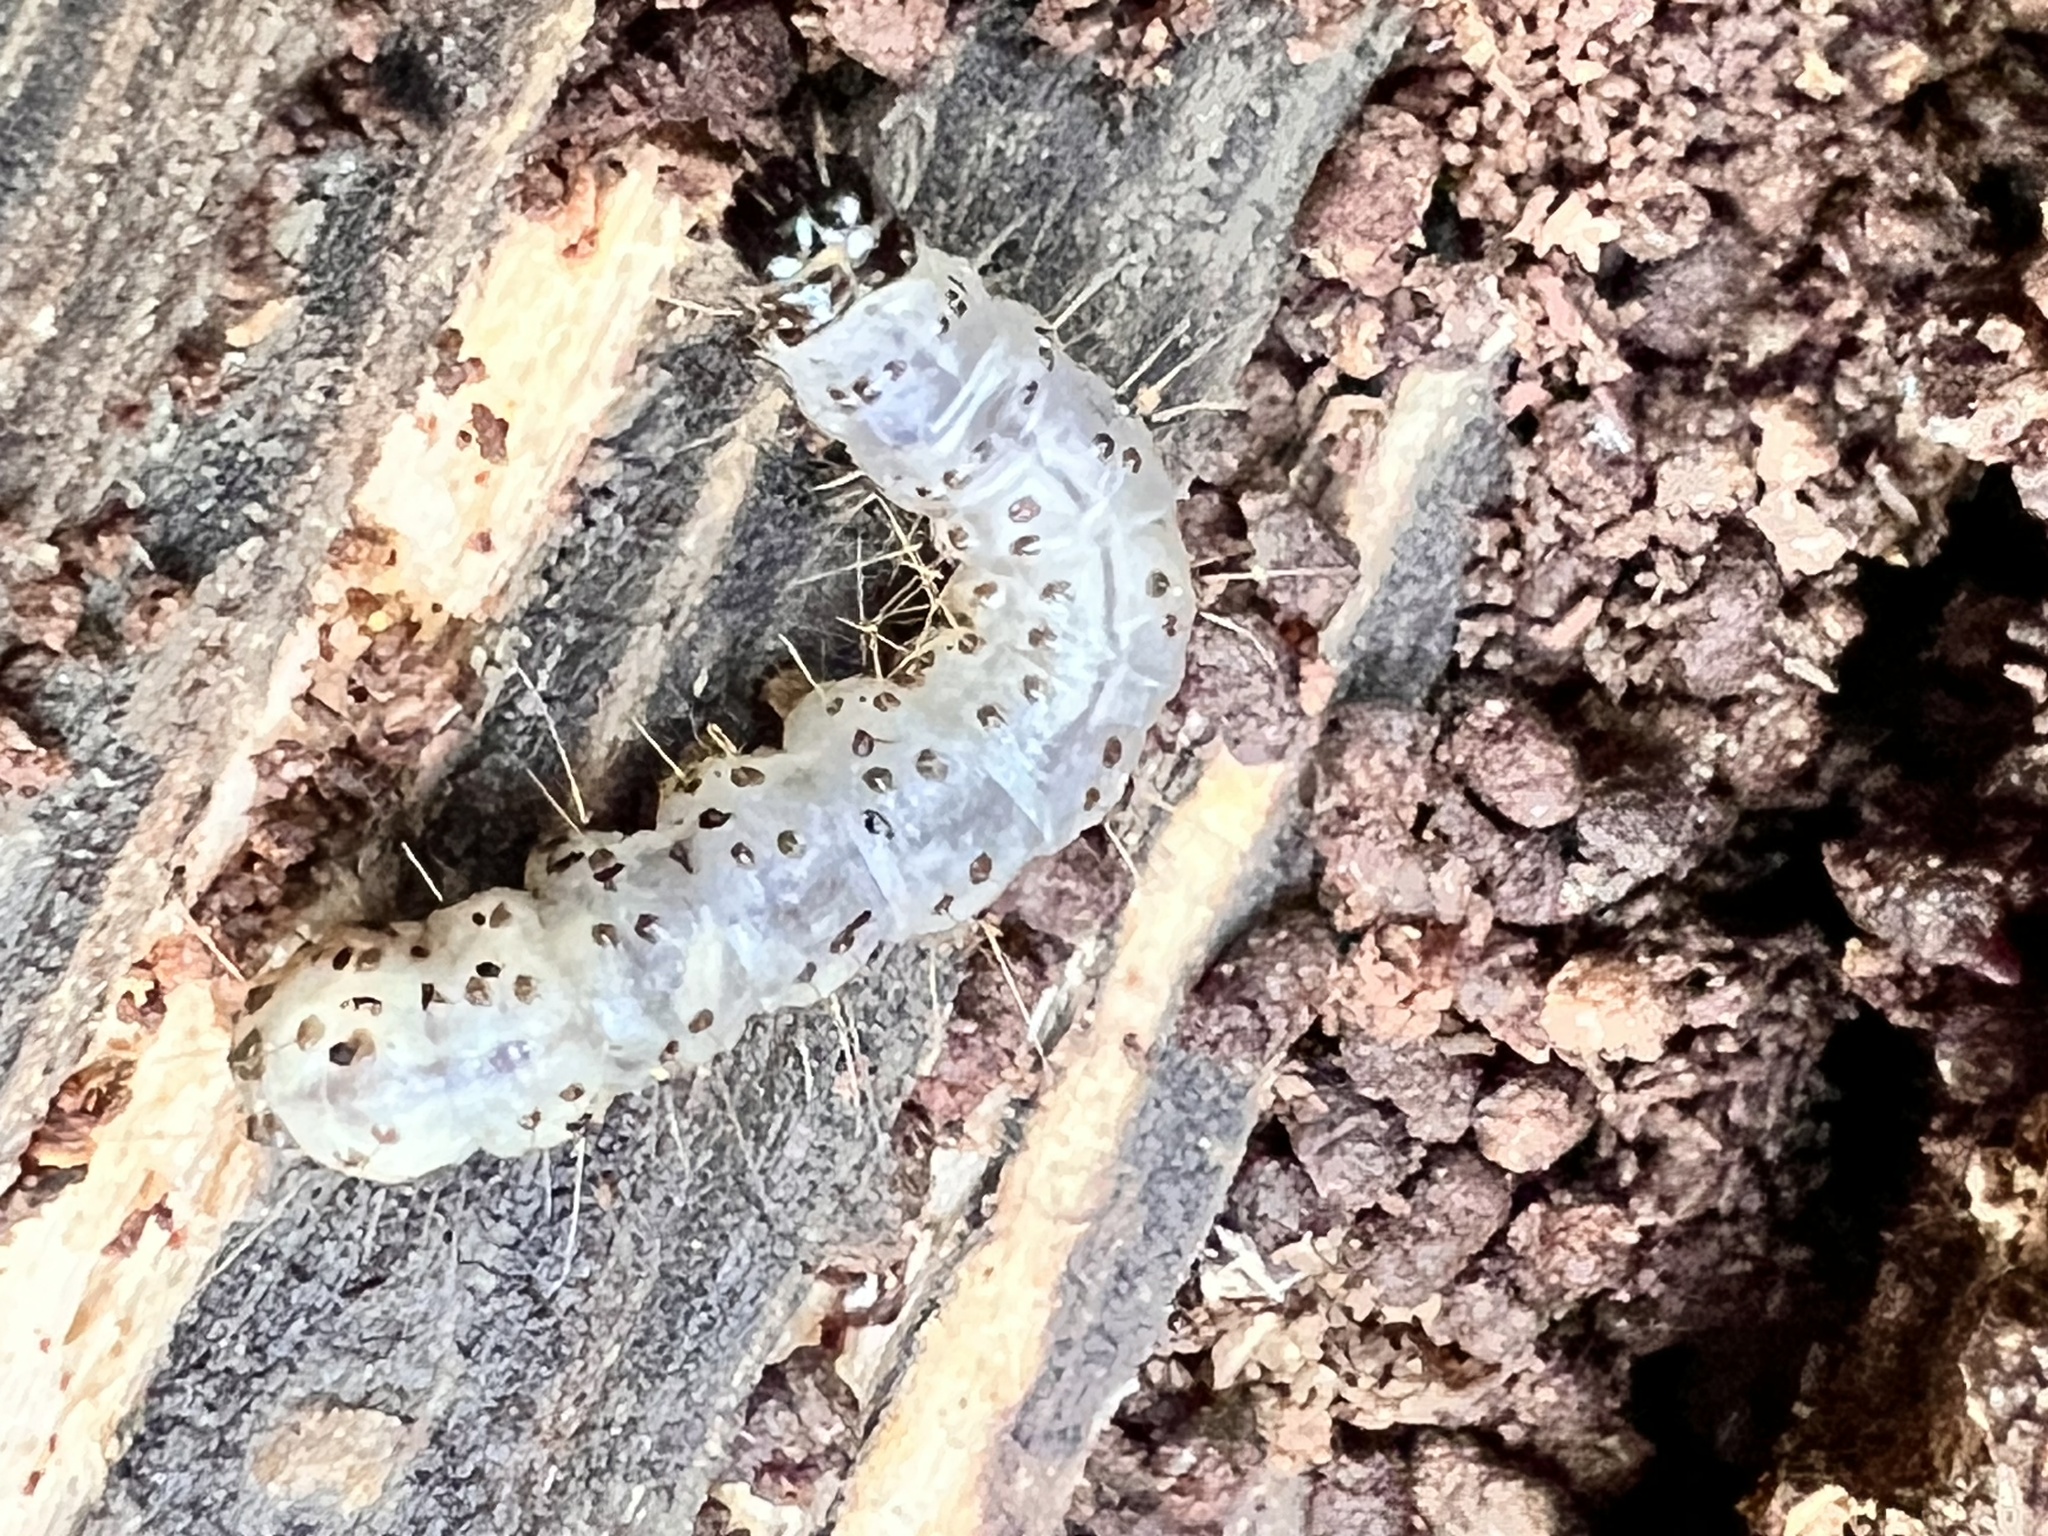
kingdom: Animalia
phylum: Arthropoda
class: Insecta
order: Lepidoptera
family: Erebidae
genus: Scolecocampa
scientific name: Scolecocampa liburna
